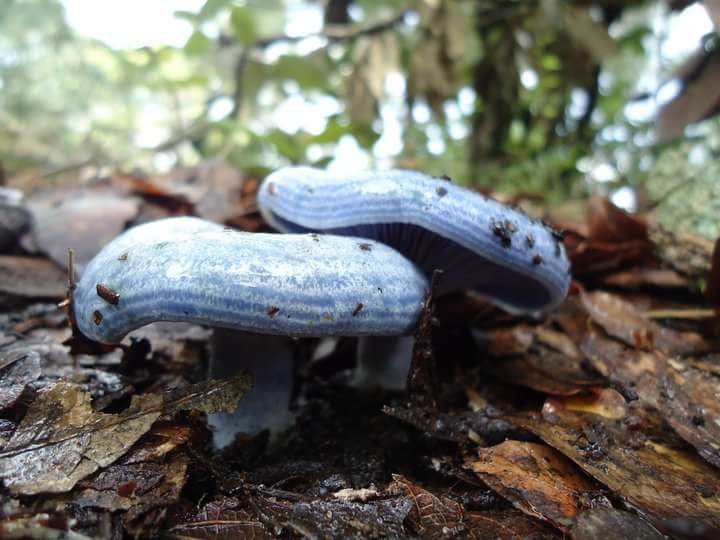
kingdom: Fungi
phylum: Basidiomycota
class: Agaricomycetes
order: Russulales
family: Russulaceae
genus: Lactarius
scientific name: Lactarius indigo
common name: Indigo milk cap
